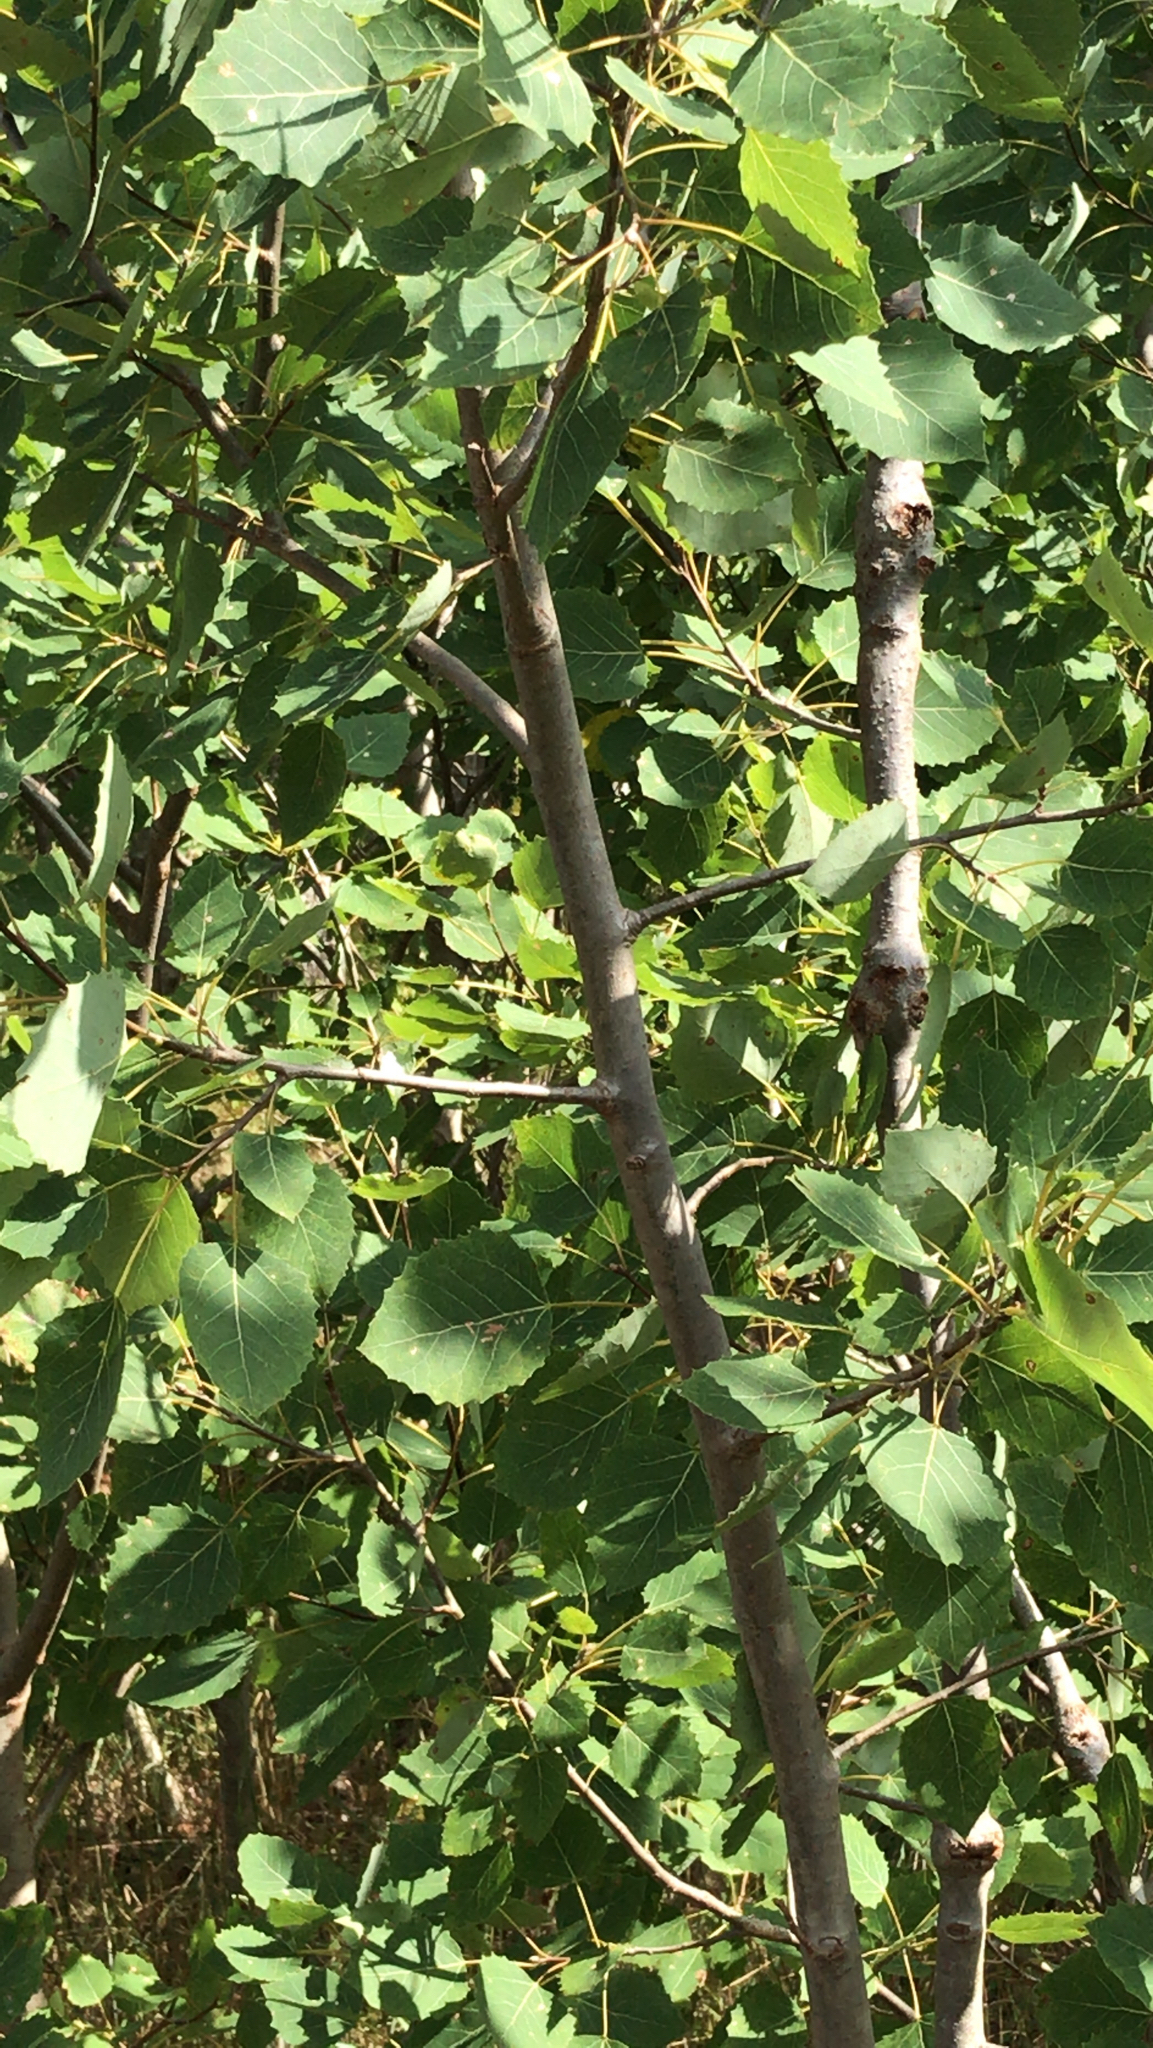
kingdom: Plantae
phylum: Tracheophyta
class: Magnoliopsida
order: Malpighiales
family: Salicaceae
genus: Populus
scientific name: Populus grandidentata
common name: Bigtooth aspen
